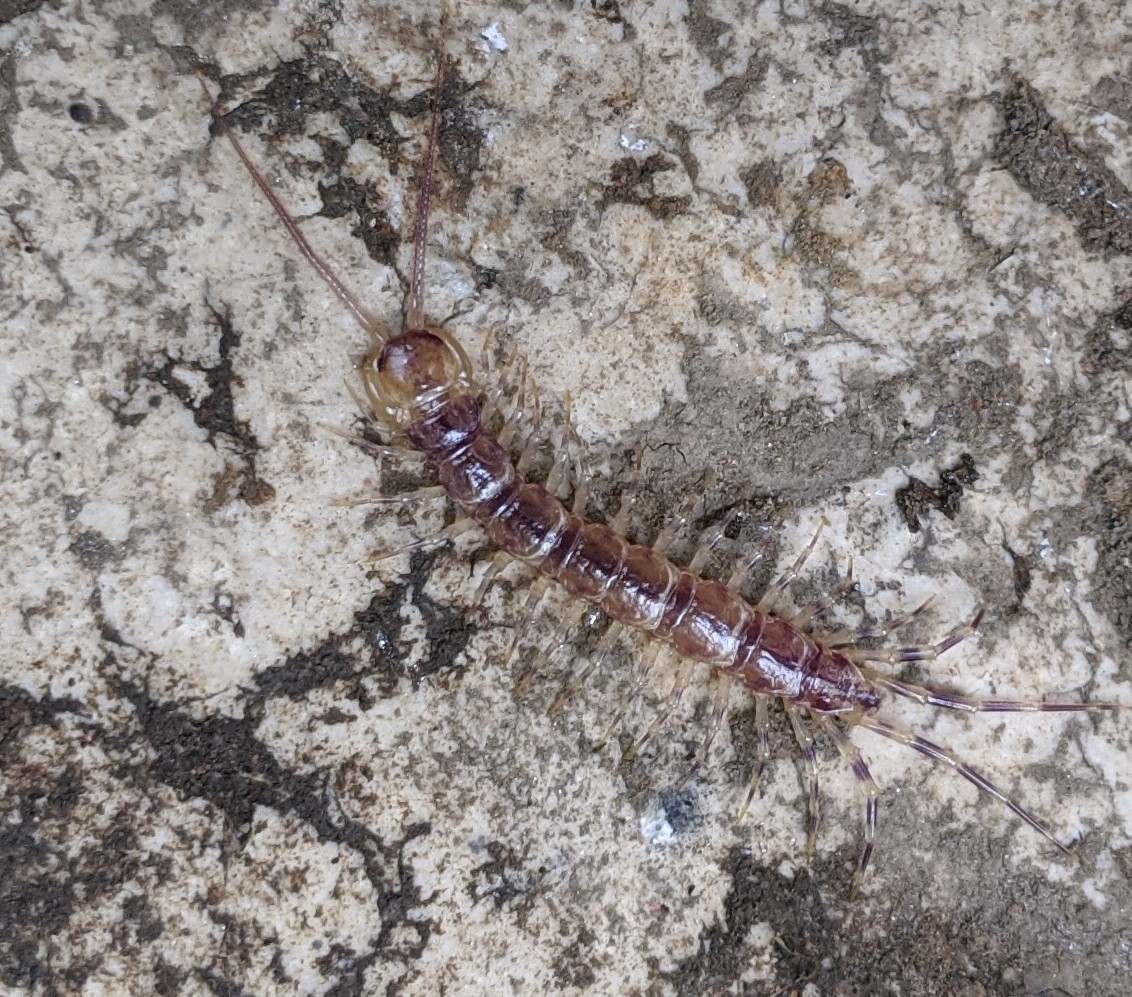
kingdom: Animalia
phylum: Arthropoda
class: Chilopoda
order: Lithobiomorpha
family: Lithobiidae
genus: Lithobius
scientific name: Lithobius variegatus
